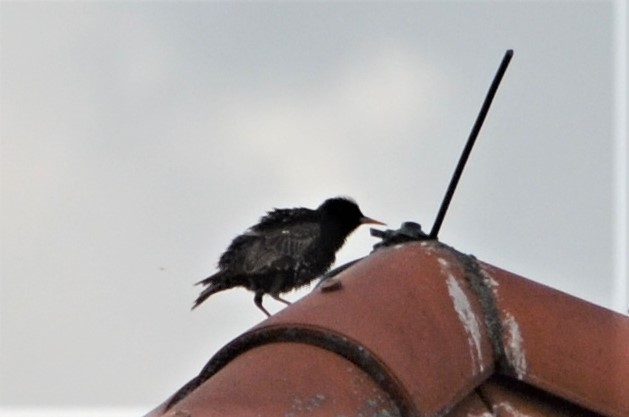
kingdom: Animalia
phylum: Chordata
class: Aves
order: Passeriformes
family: Sturnidae
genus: Sturnus
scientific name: Sturnus vulgaris
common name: Common starling
